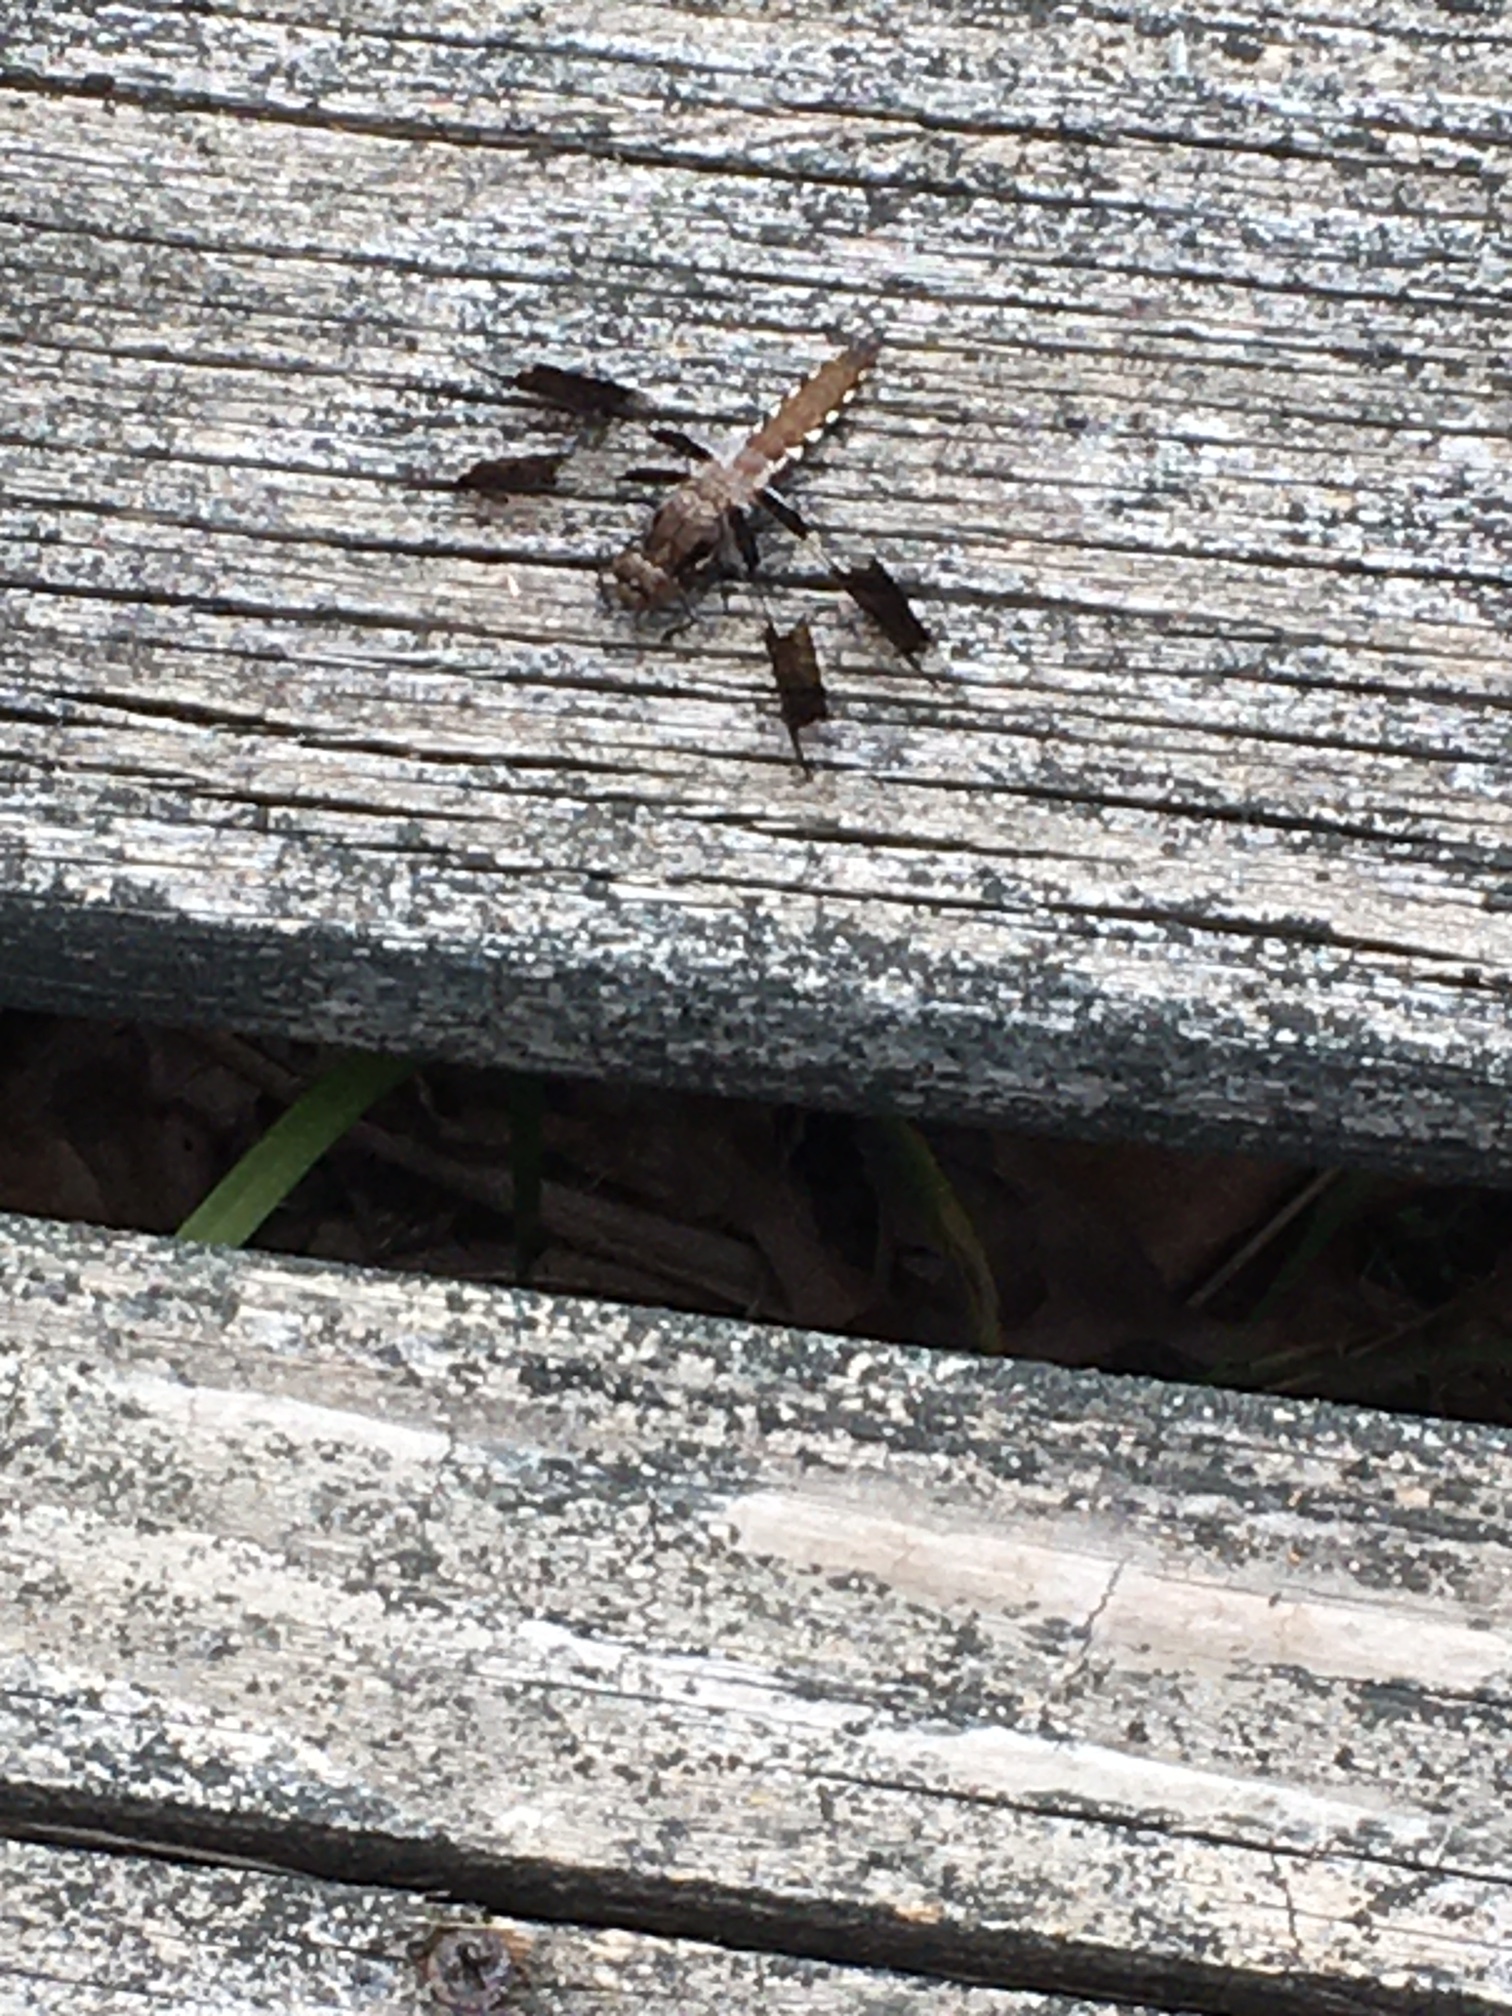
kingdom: Animalia
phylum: Arthropoda
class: Insecta
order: Odonata
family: Libellulidae
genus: Plathemis
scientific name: Plathemis lydia
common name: Common whitetail
